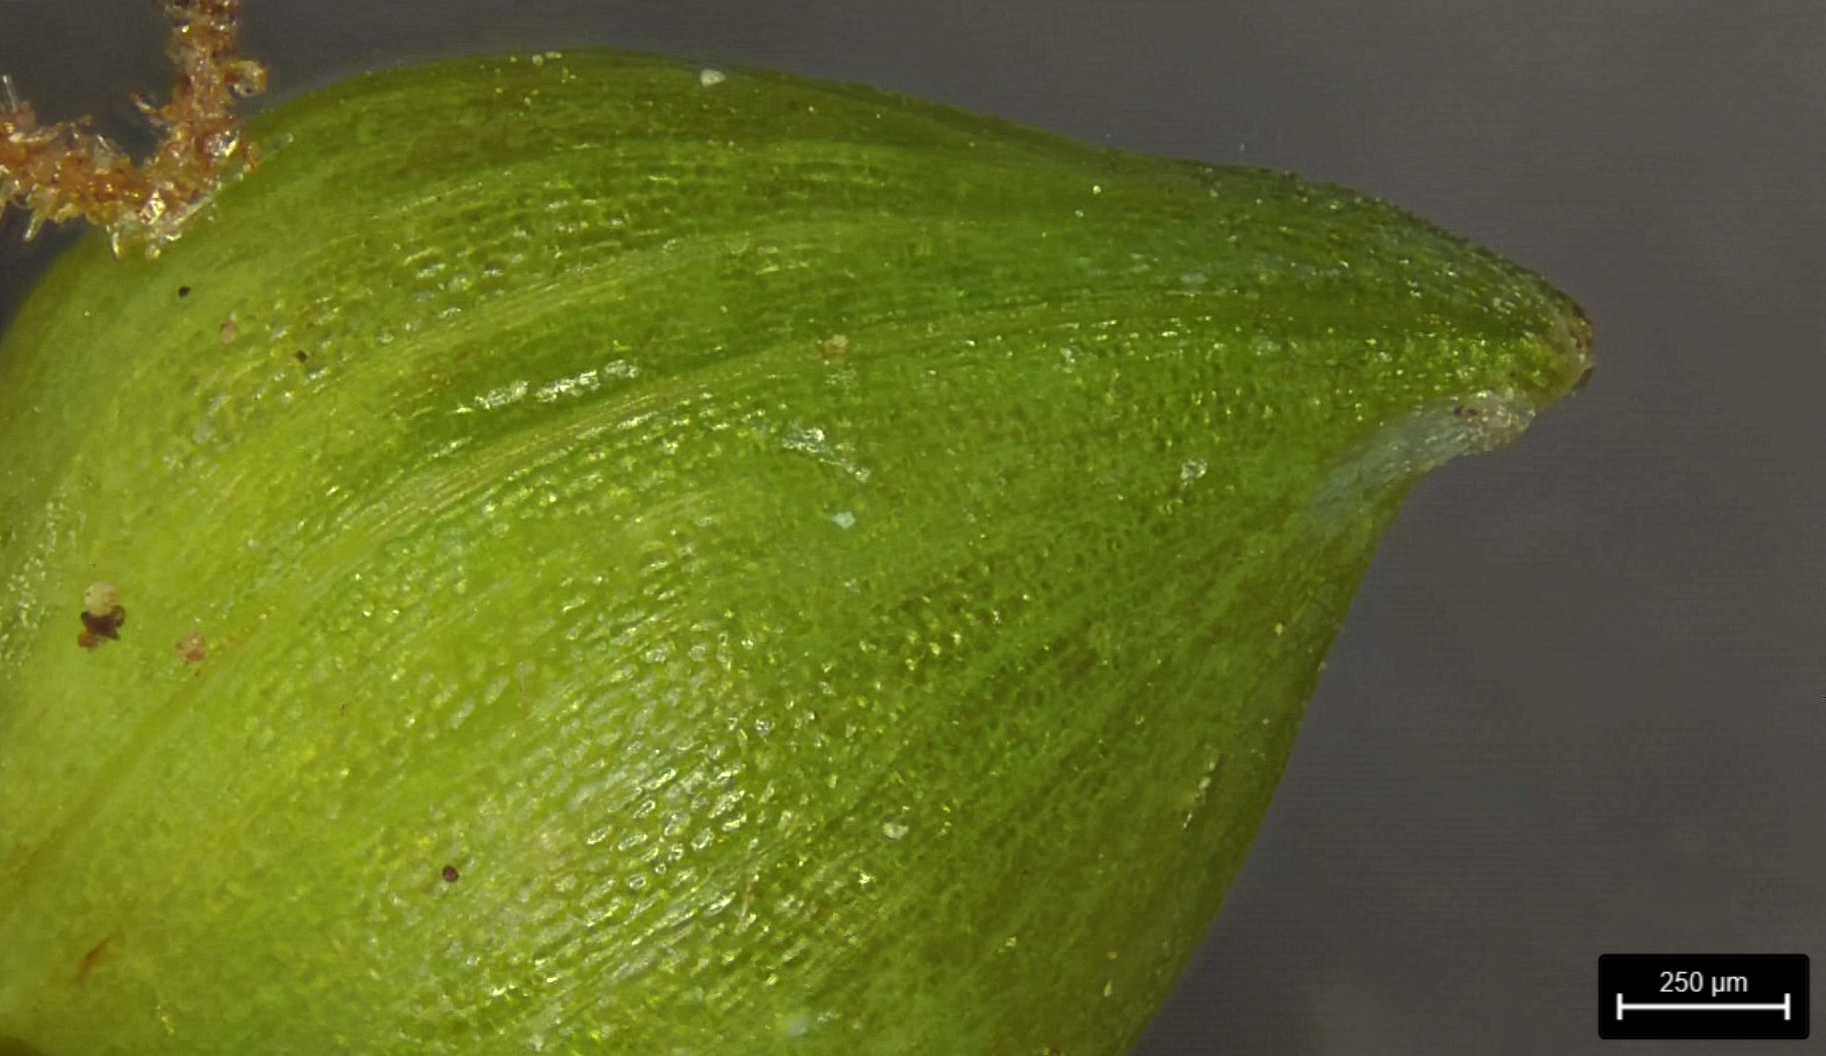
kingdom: Plantae
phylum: Tracheophyta
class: Liliopsida
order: Poales
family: Cyperaceae
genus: Carex
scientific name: Carex blanda
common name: Bland sedge
